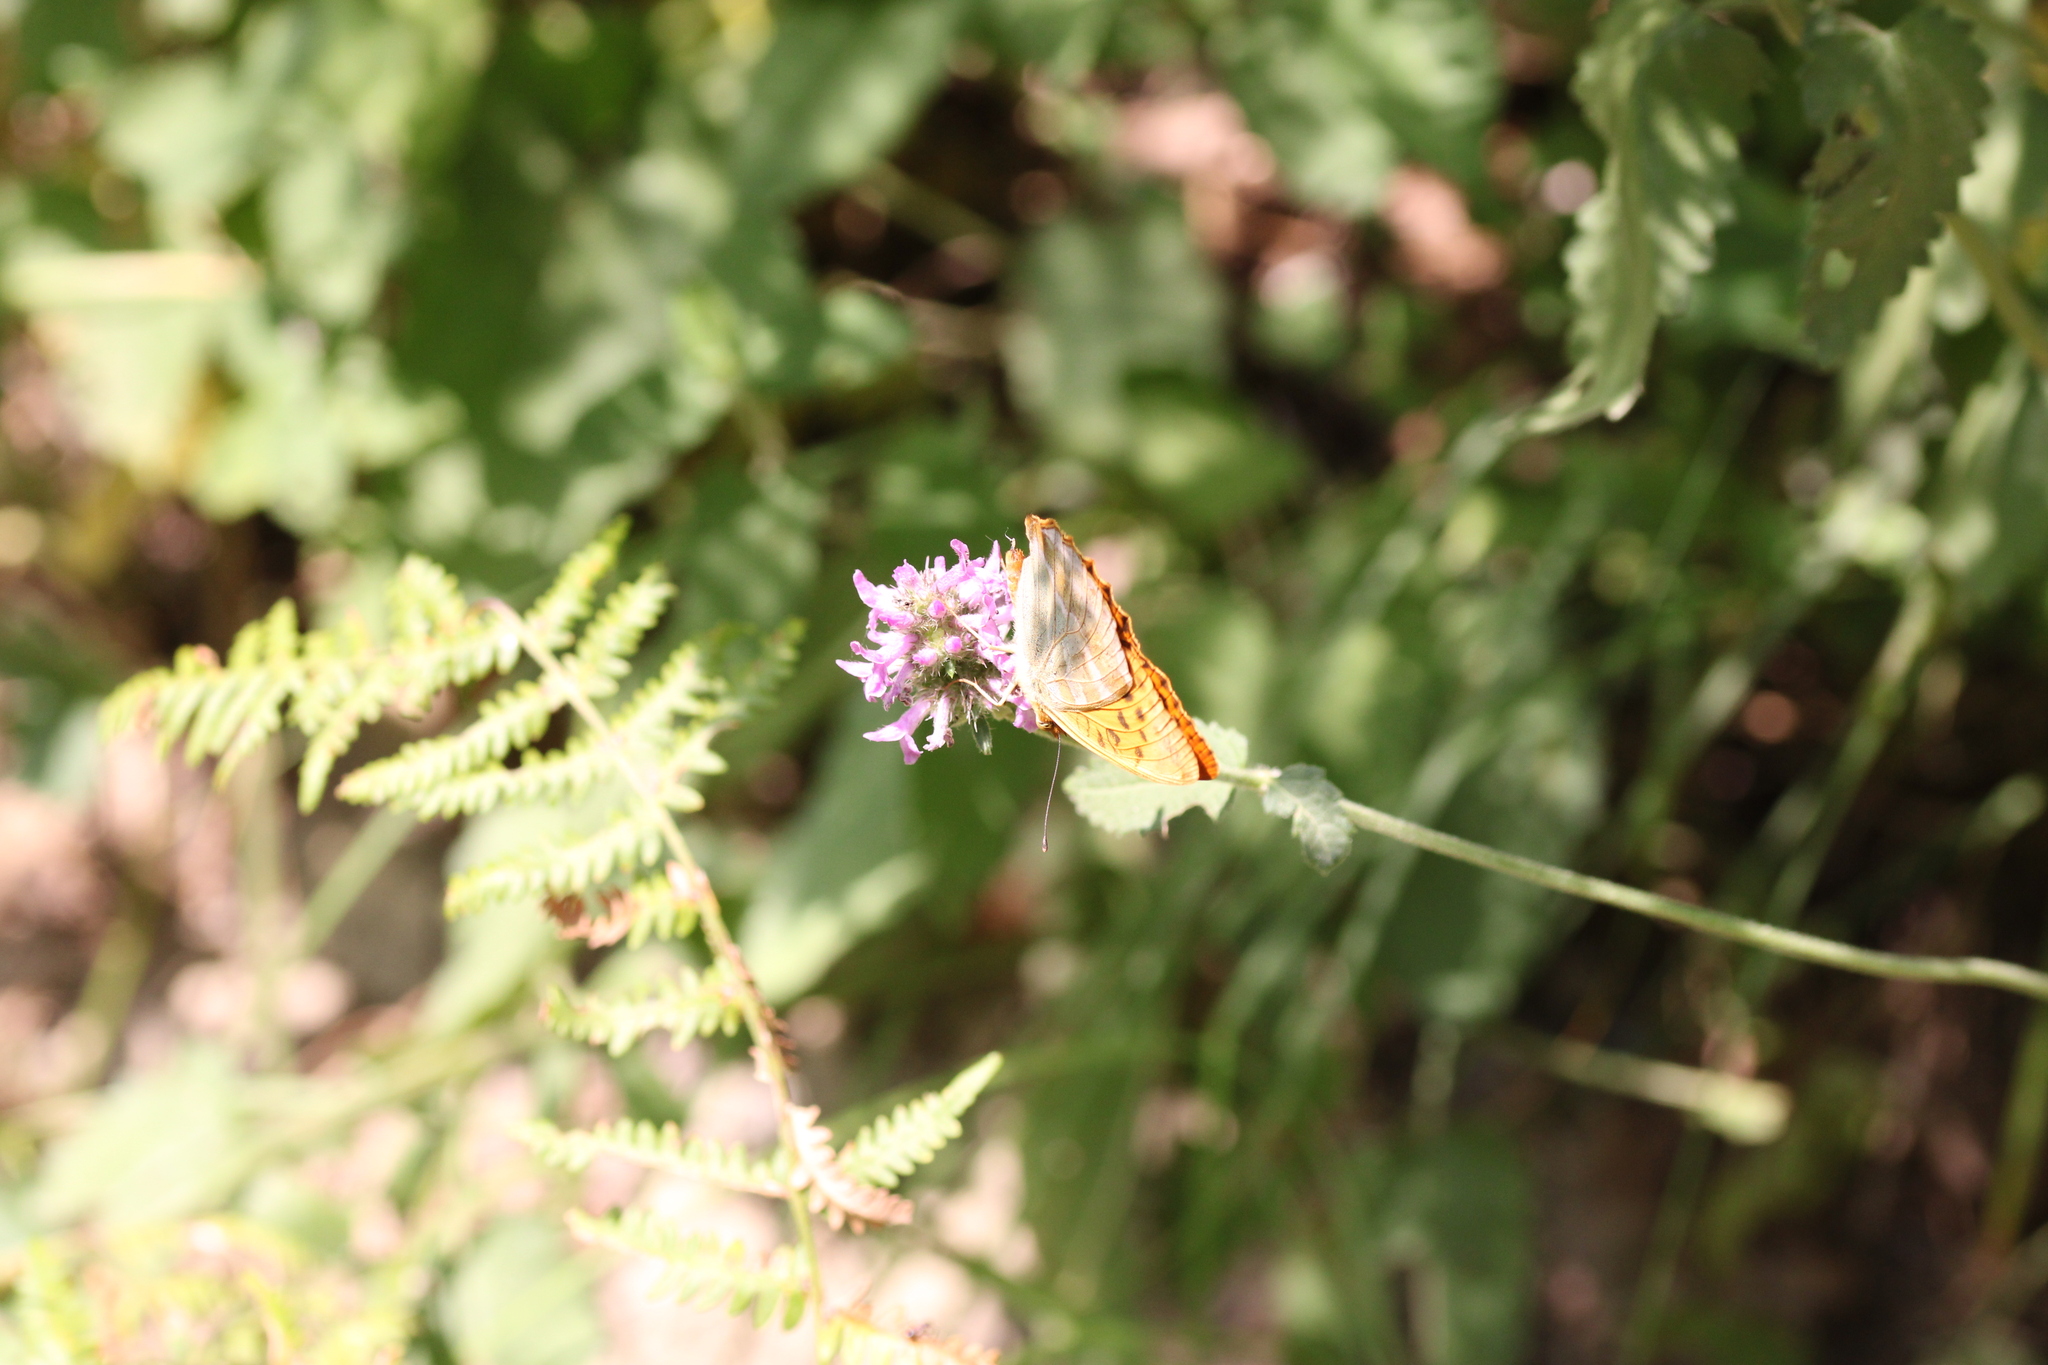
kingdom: Animalia
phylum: Arthropoda
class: Insecta
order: Lepidoptera
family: Nymphalidae
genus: Argynnis
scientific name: Argynnis paphia
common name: Silver-washed fritillary
